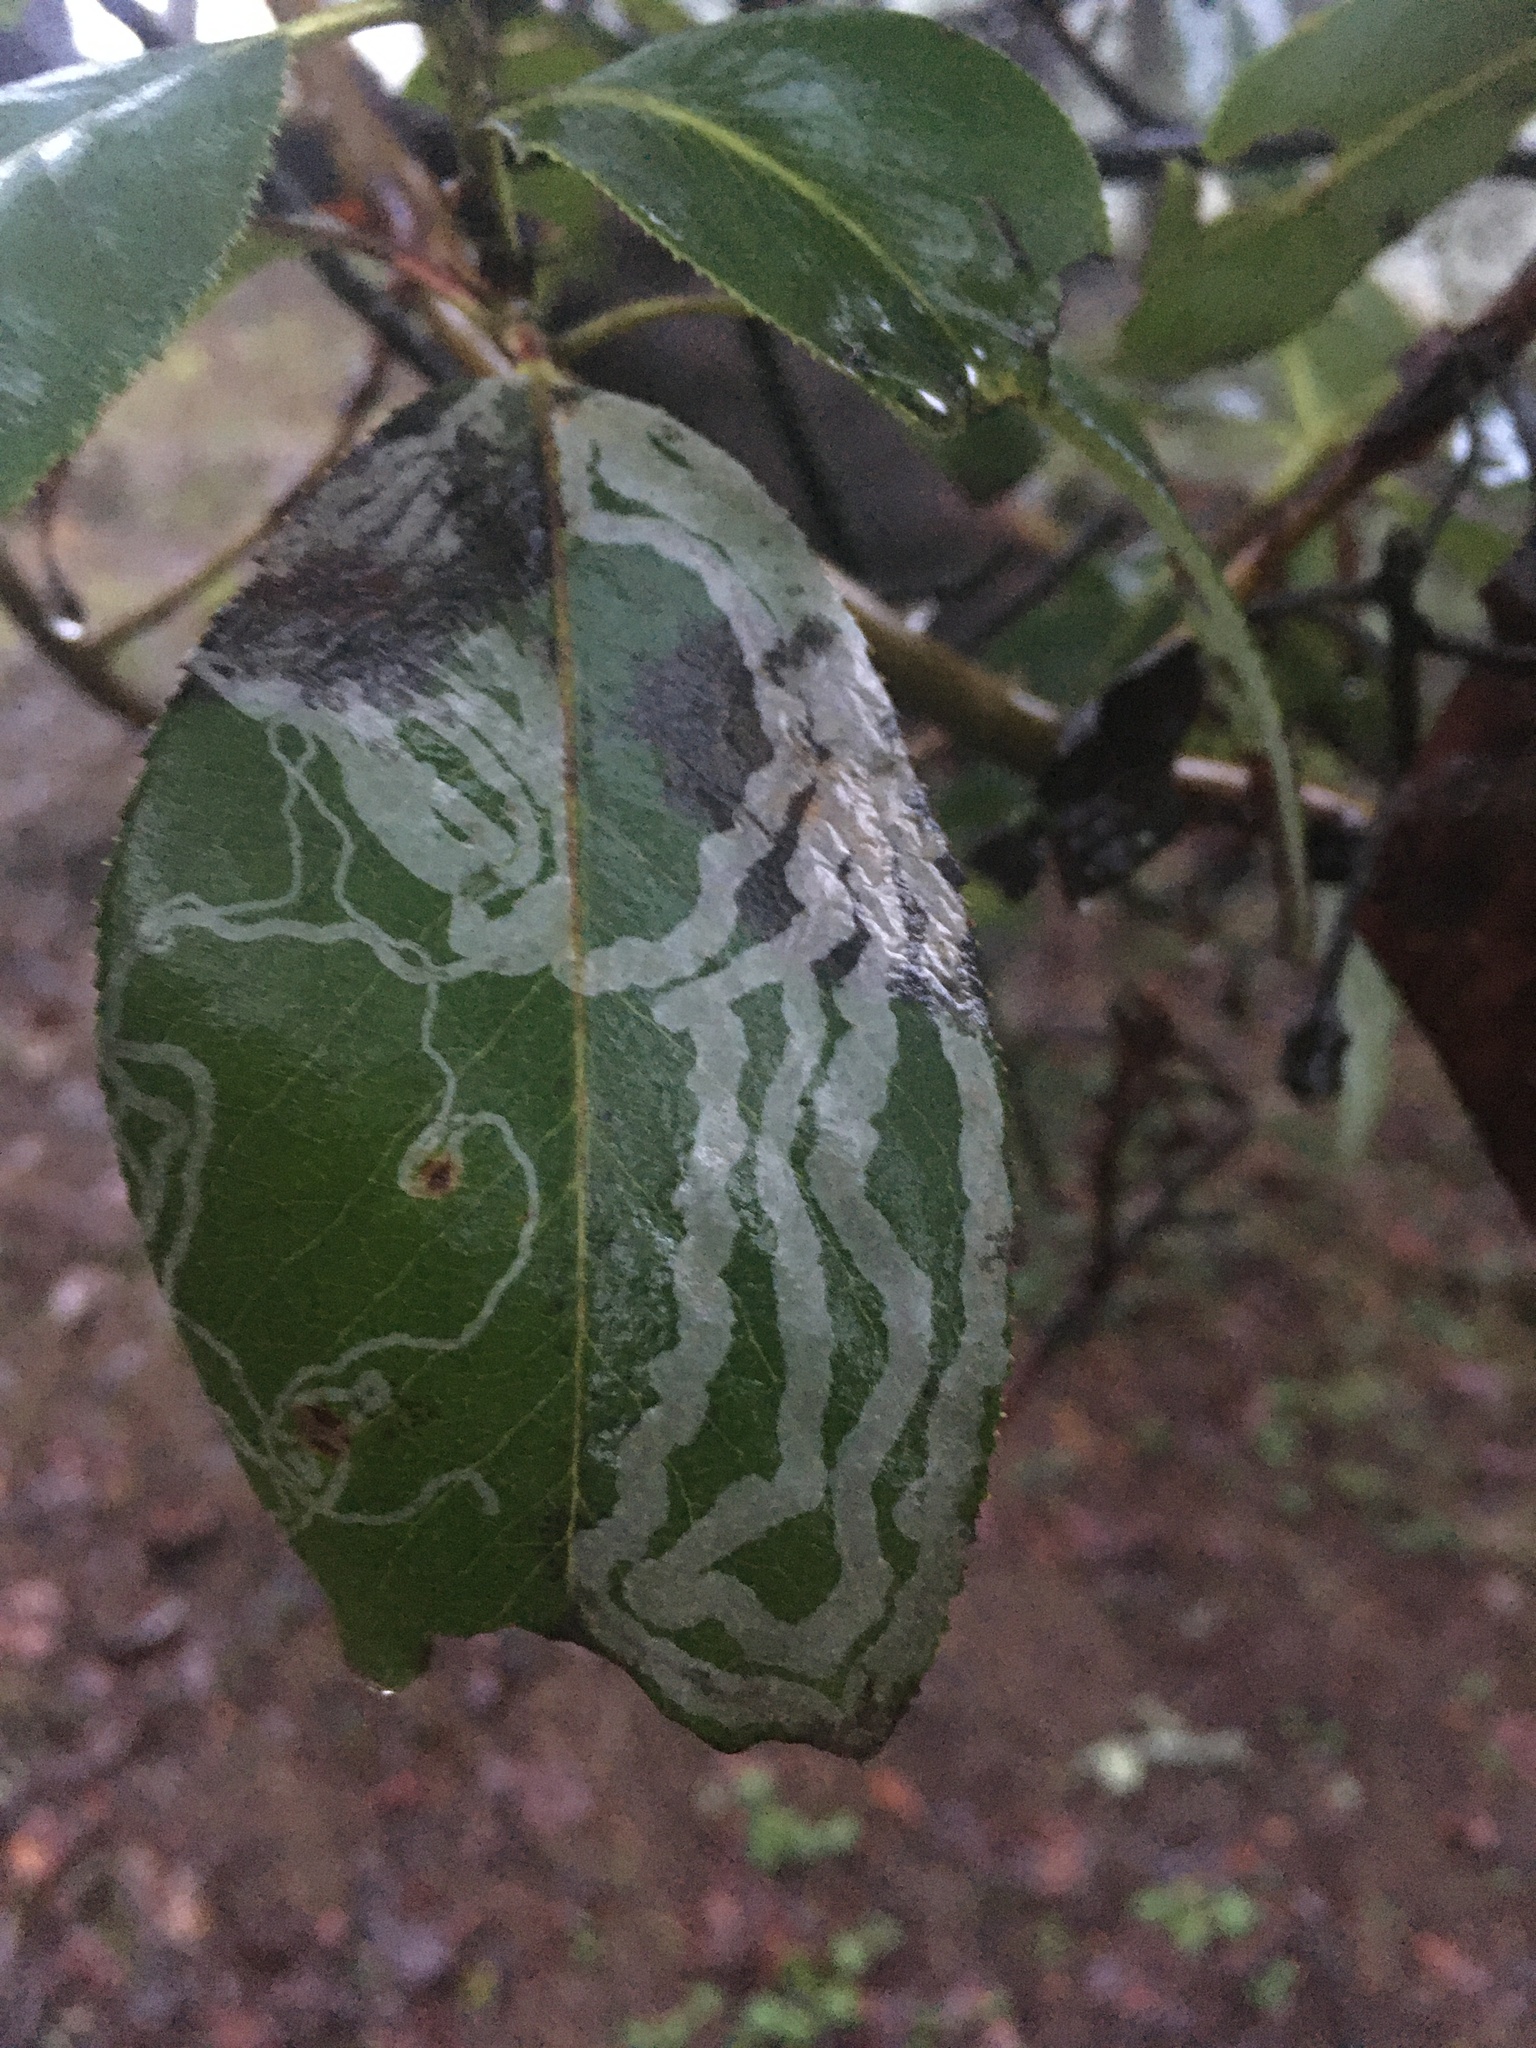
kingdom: Animalia
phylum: Arthropoda
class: Insecta
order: Lepidoptera
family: Gracillariidae
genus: Marmara
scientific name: Marmara arbutiella
